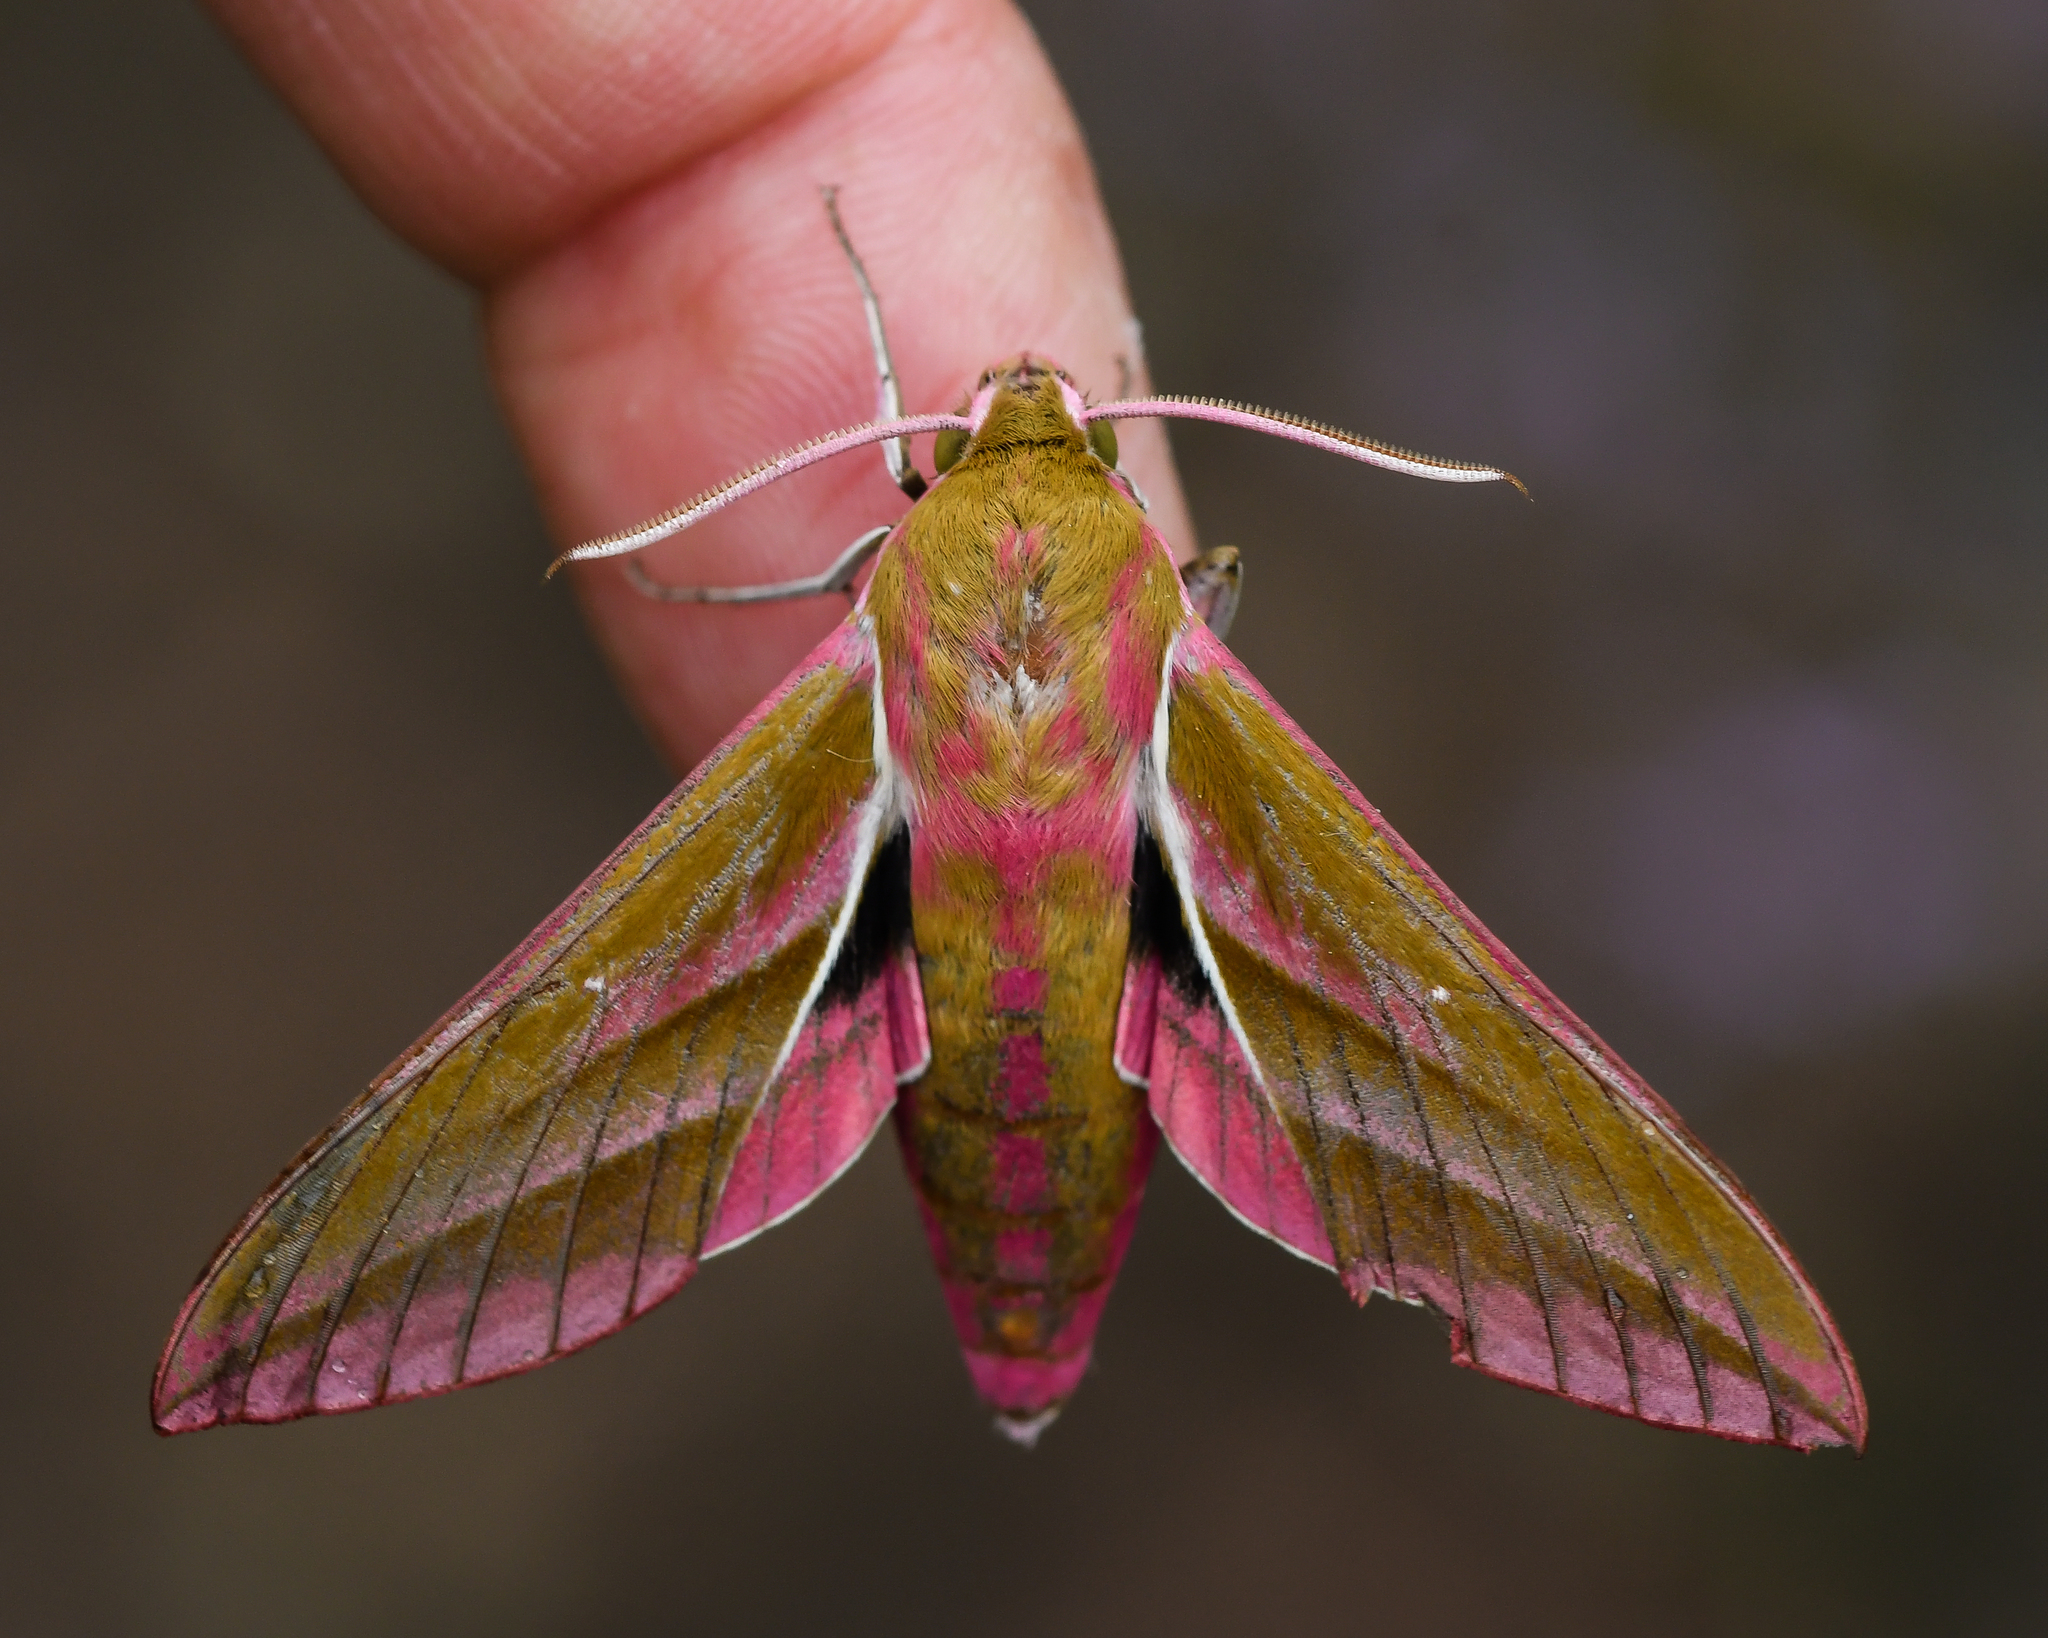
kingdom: Animalia
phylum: Arthropoda
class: Insecta
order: Lepidoptera
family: Sphingidae
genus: Deilephila
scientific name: Deilephila elpenor
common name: Elephant hawk-moth
